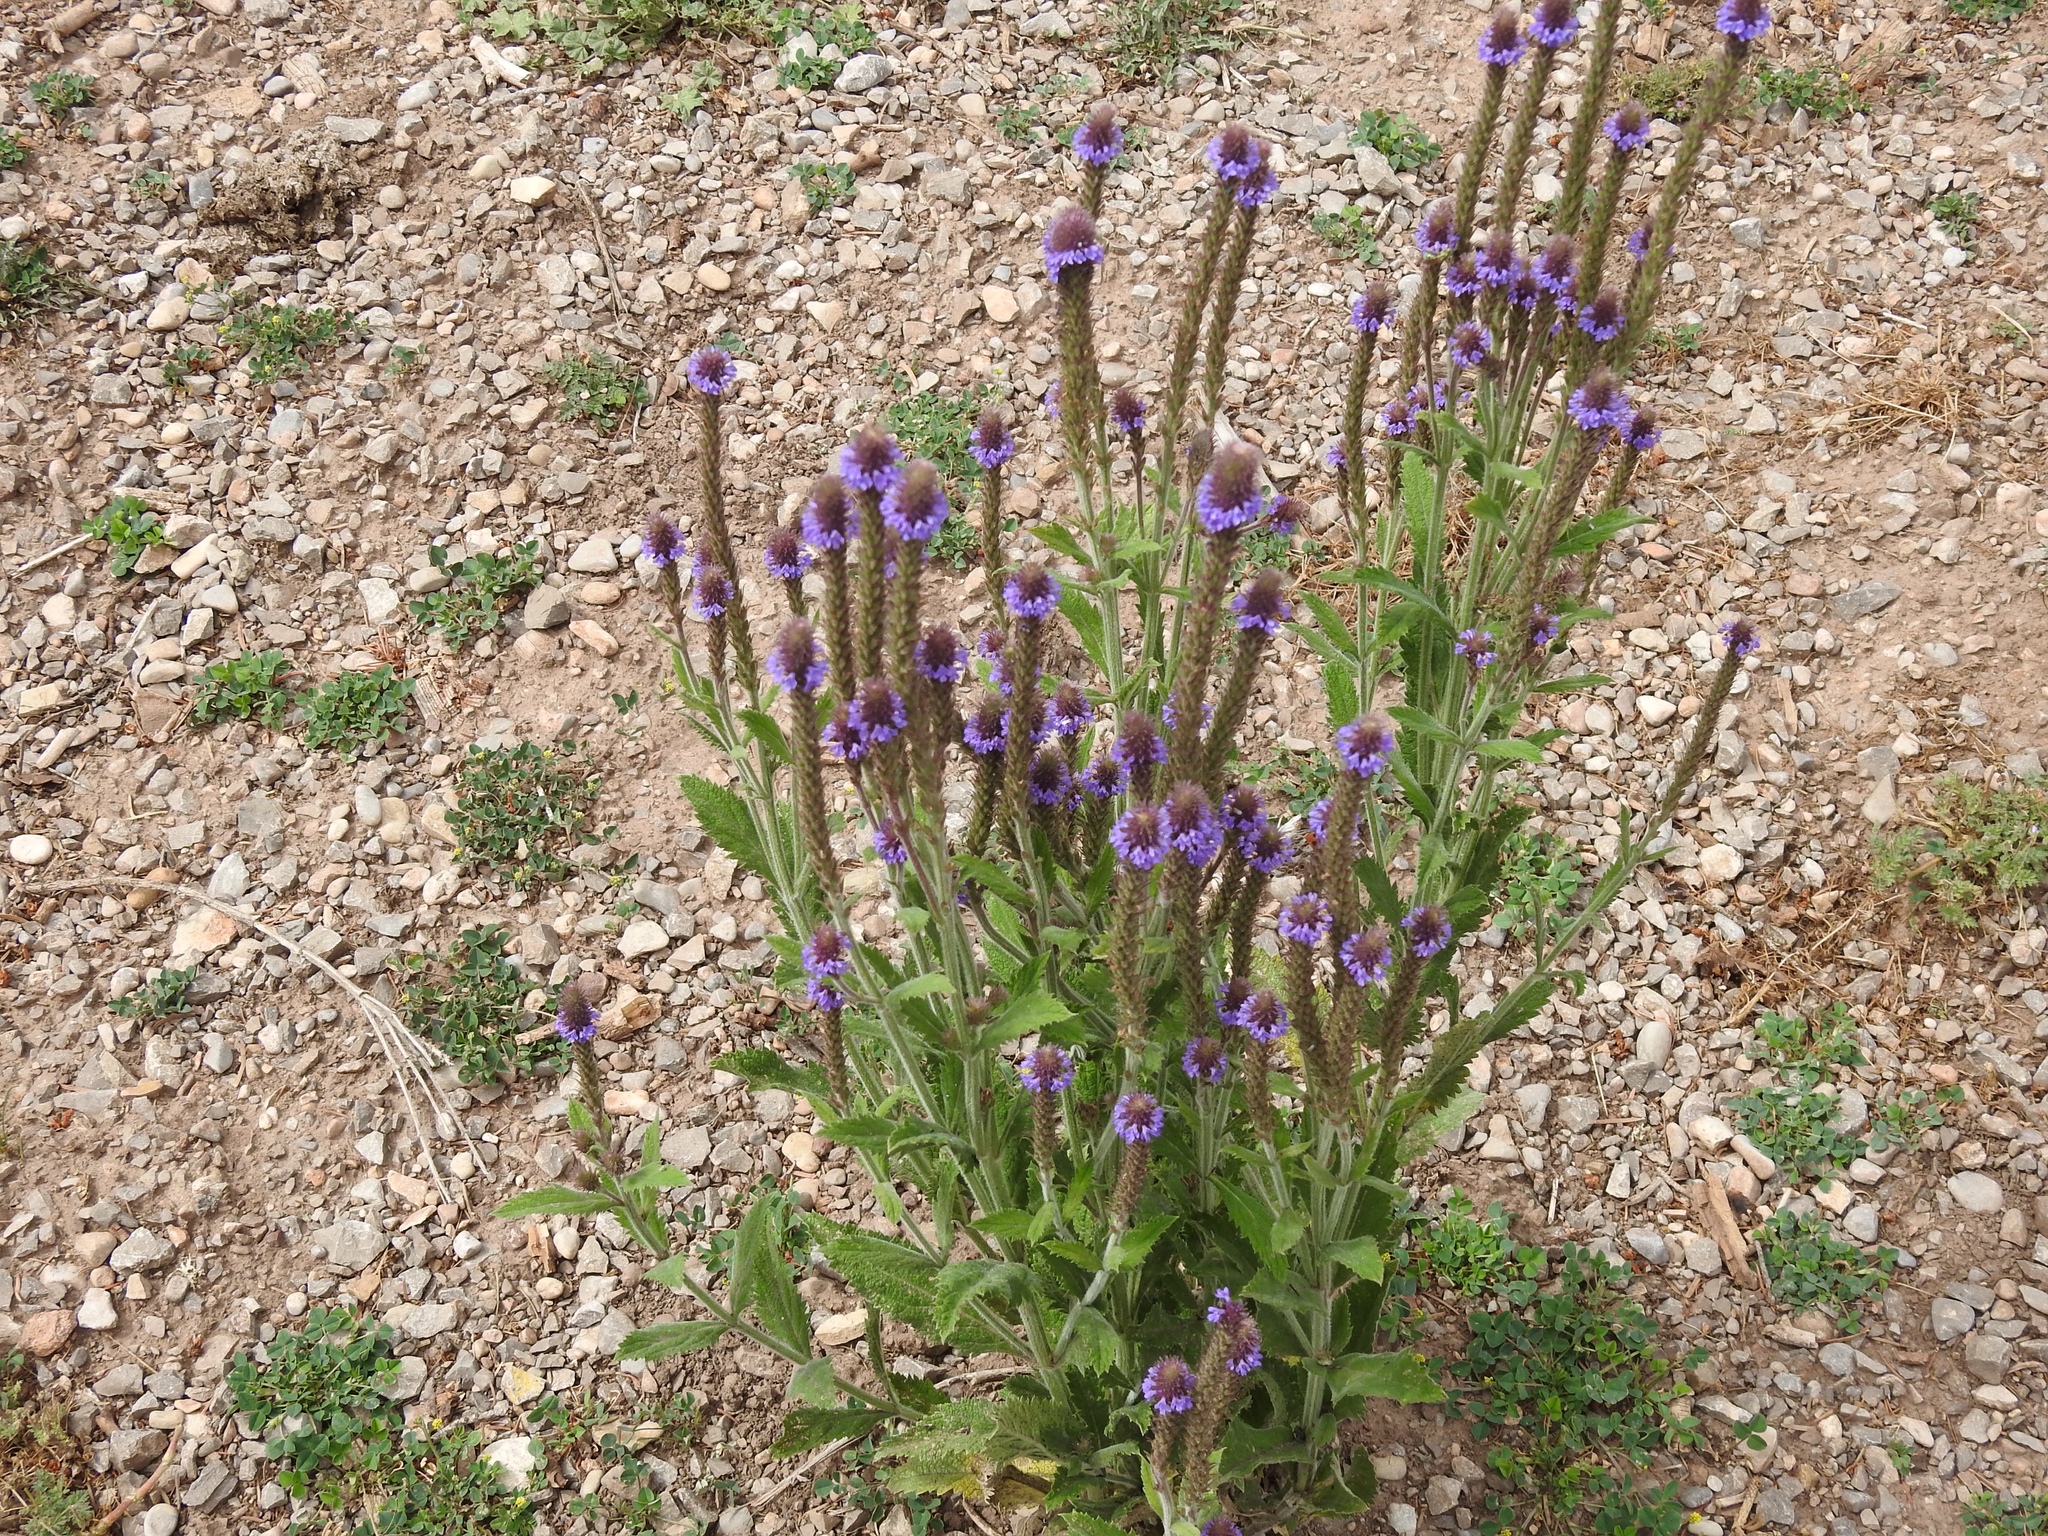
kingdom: Plantae
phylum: Tracheophyta
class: Magnoliopsida
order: Lamiales
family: Verbenaceae
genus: Verbena
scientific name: Verbena macdougalii
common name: New mexico vervain
